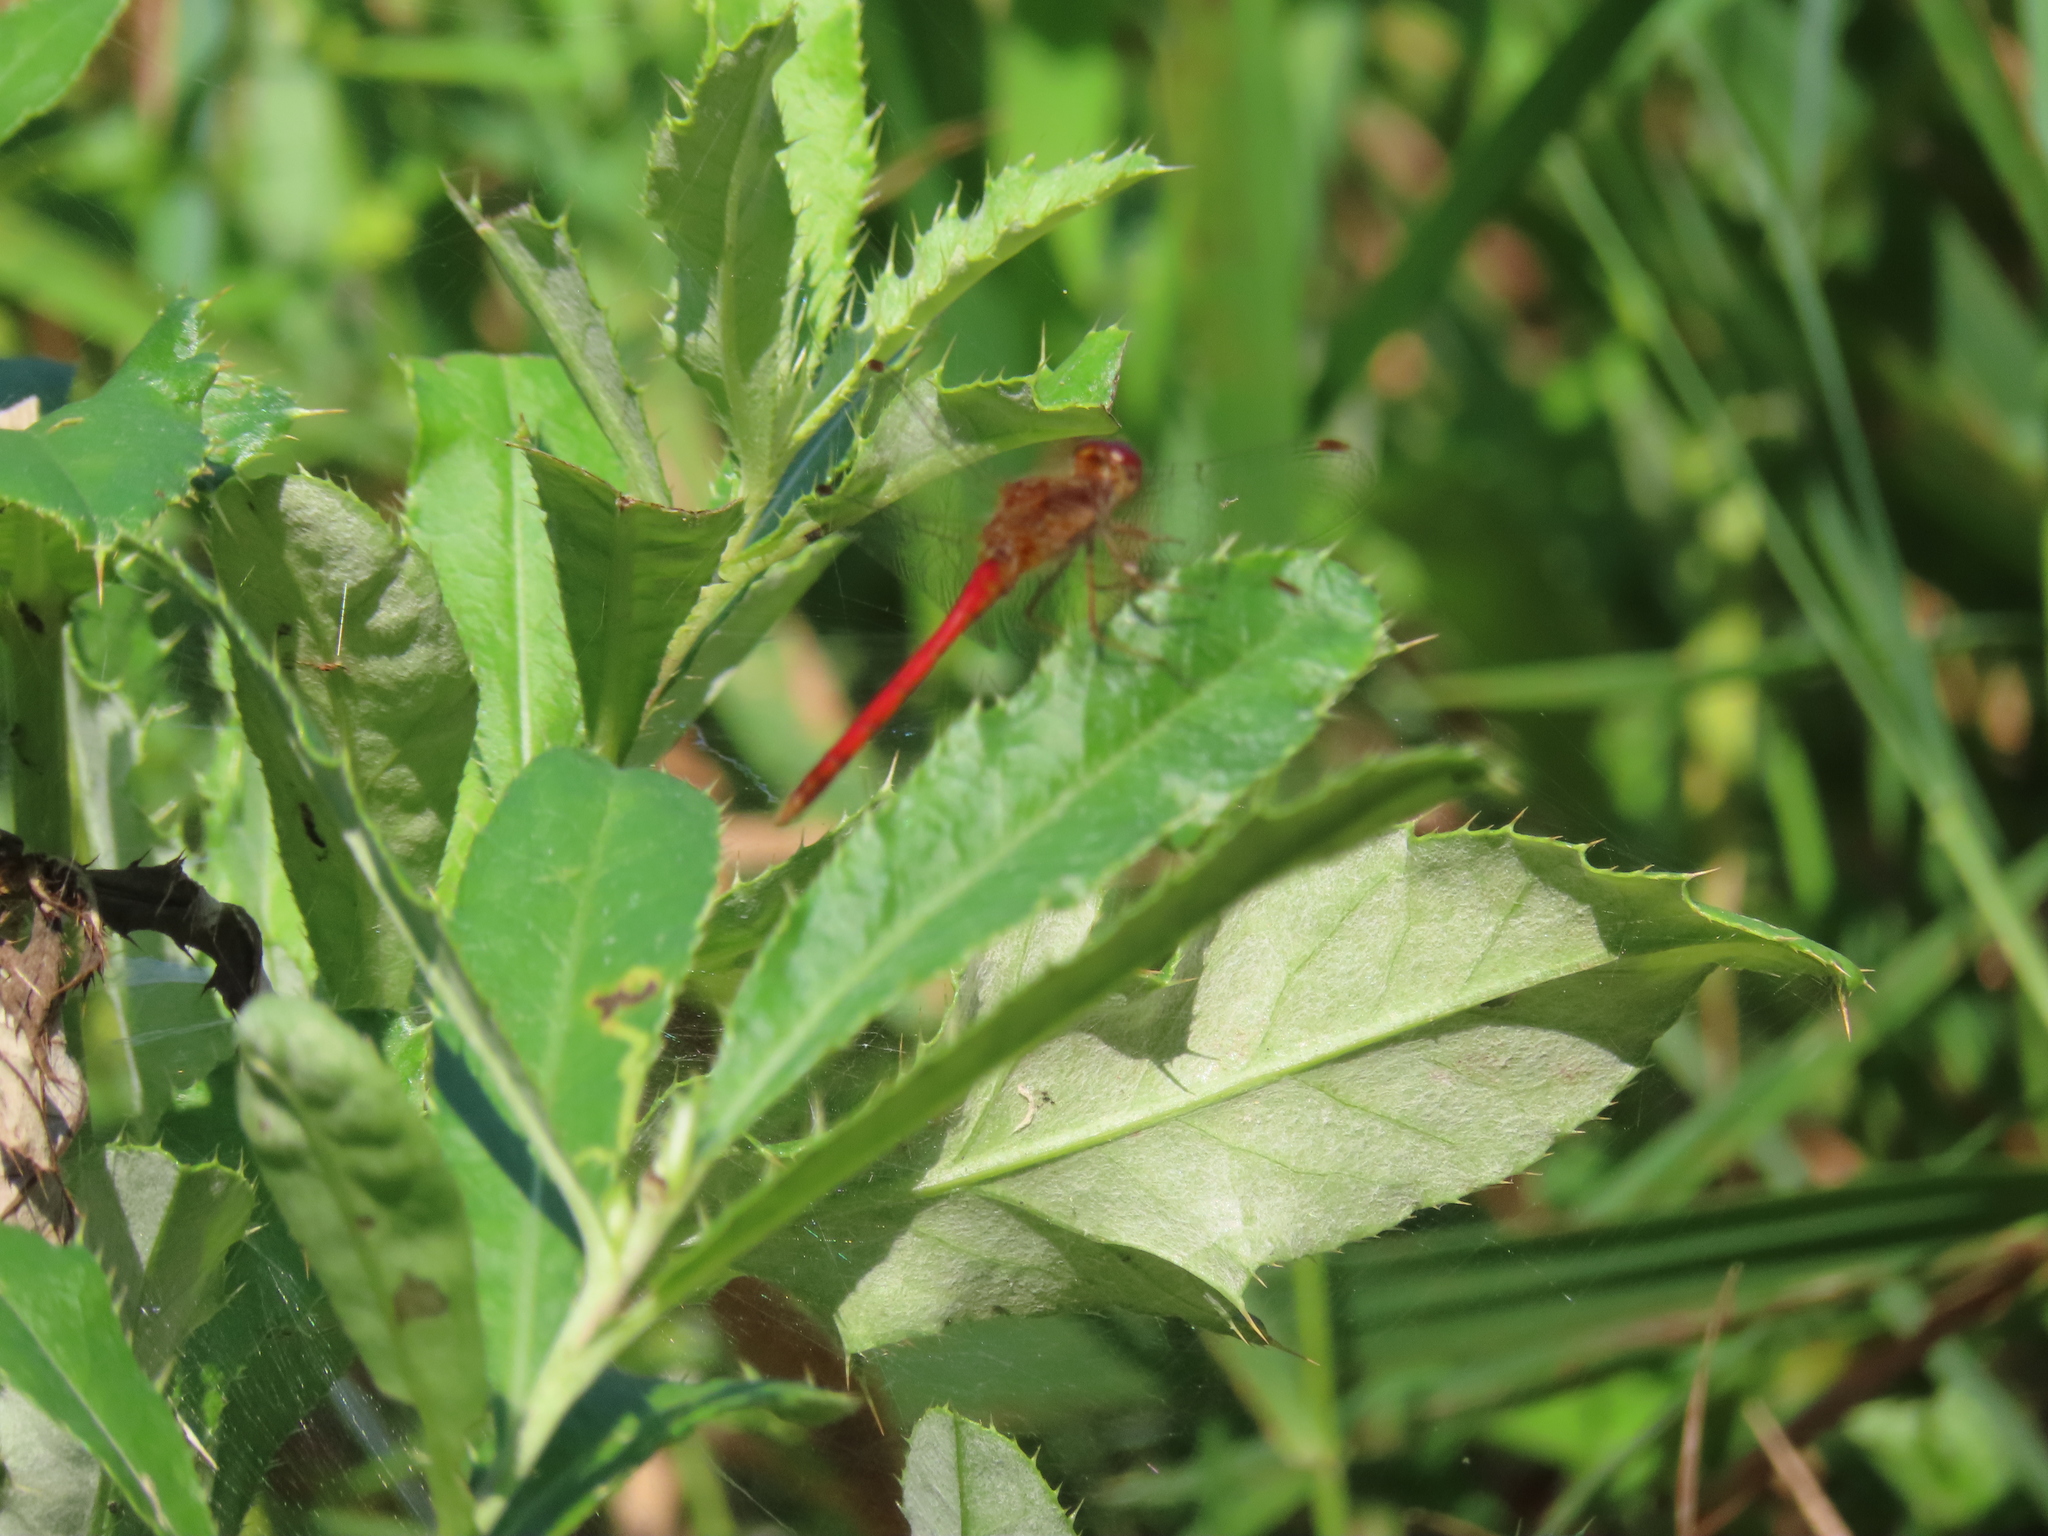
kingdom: Animalia
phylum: Arthropoda
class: Insecta
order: Odonata
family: Libellulidae
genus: Sympetrum
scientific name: Sympetrum vicinum
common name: Autumn meadowhawk
